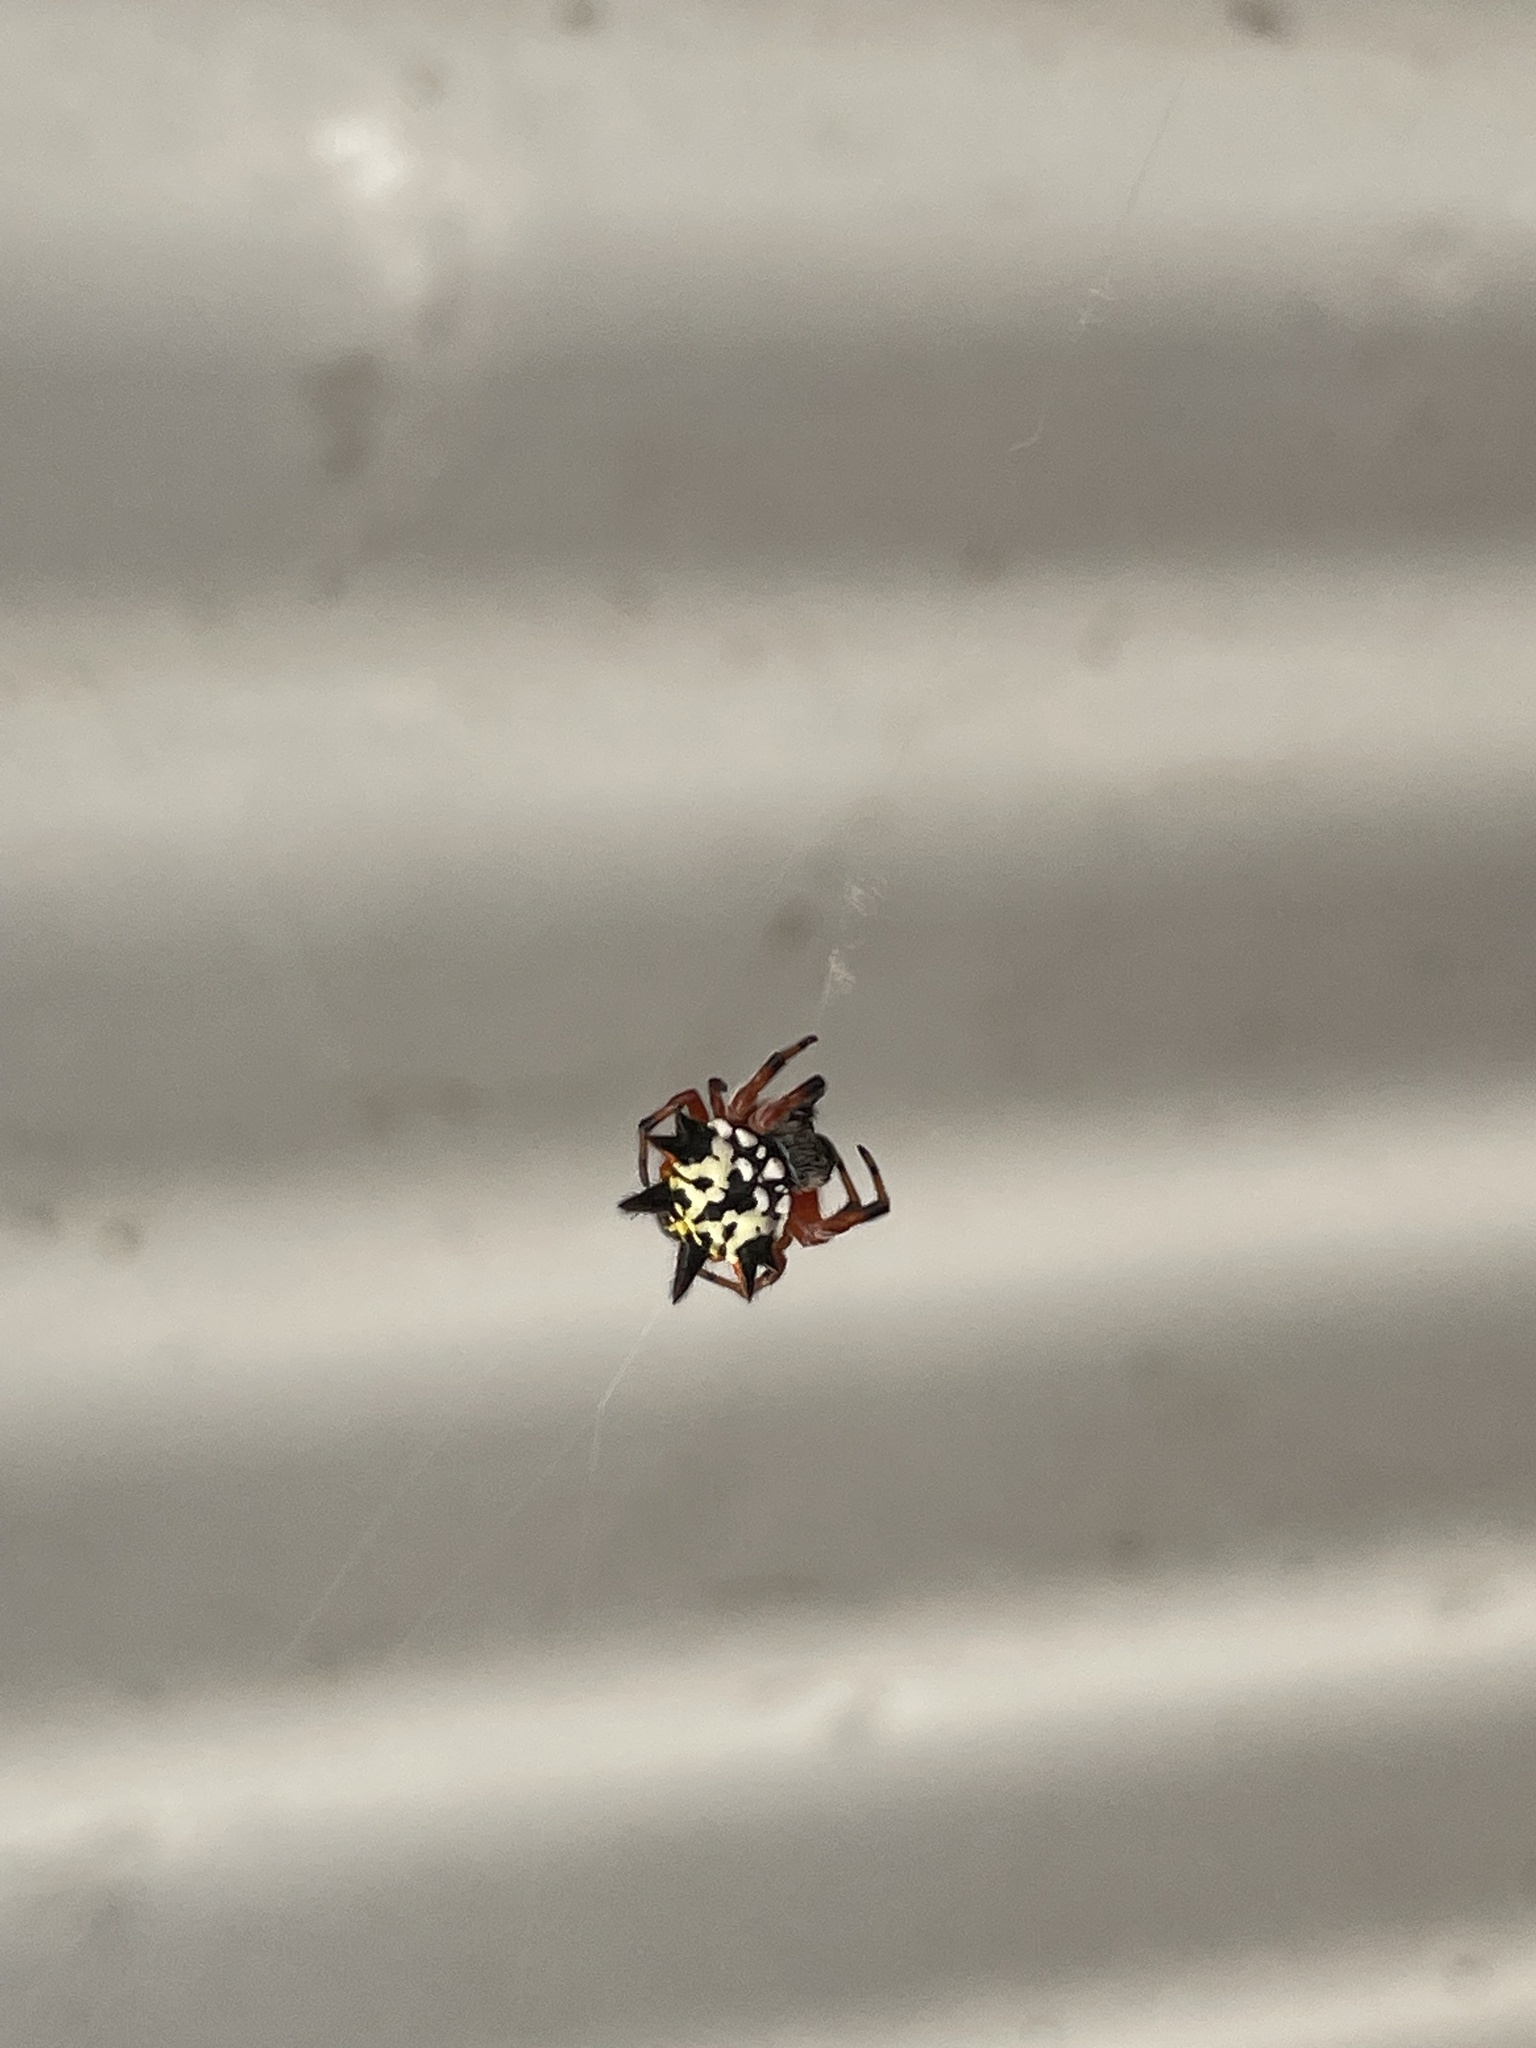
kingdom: Animalia
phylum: Arthropoda
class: Arachnida
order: Araneae
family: Araneidae
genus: Austracantha
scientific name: Austracantha minax
